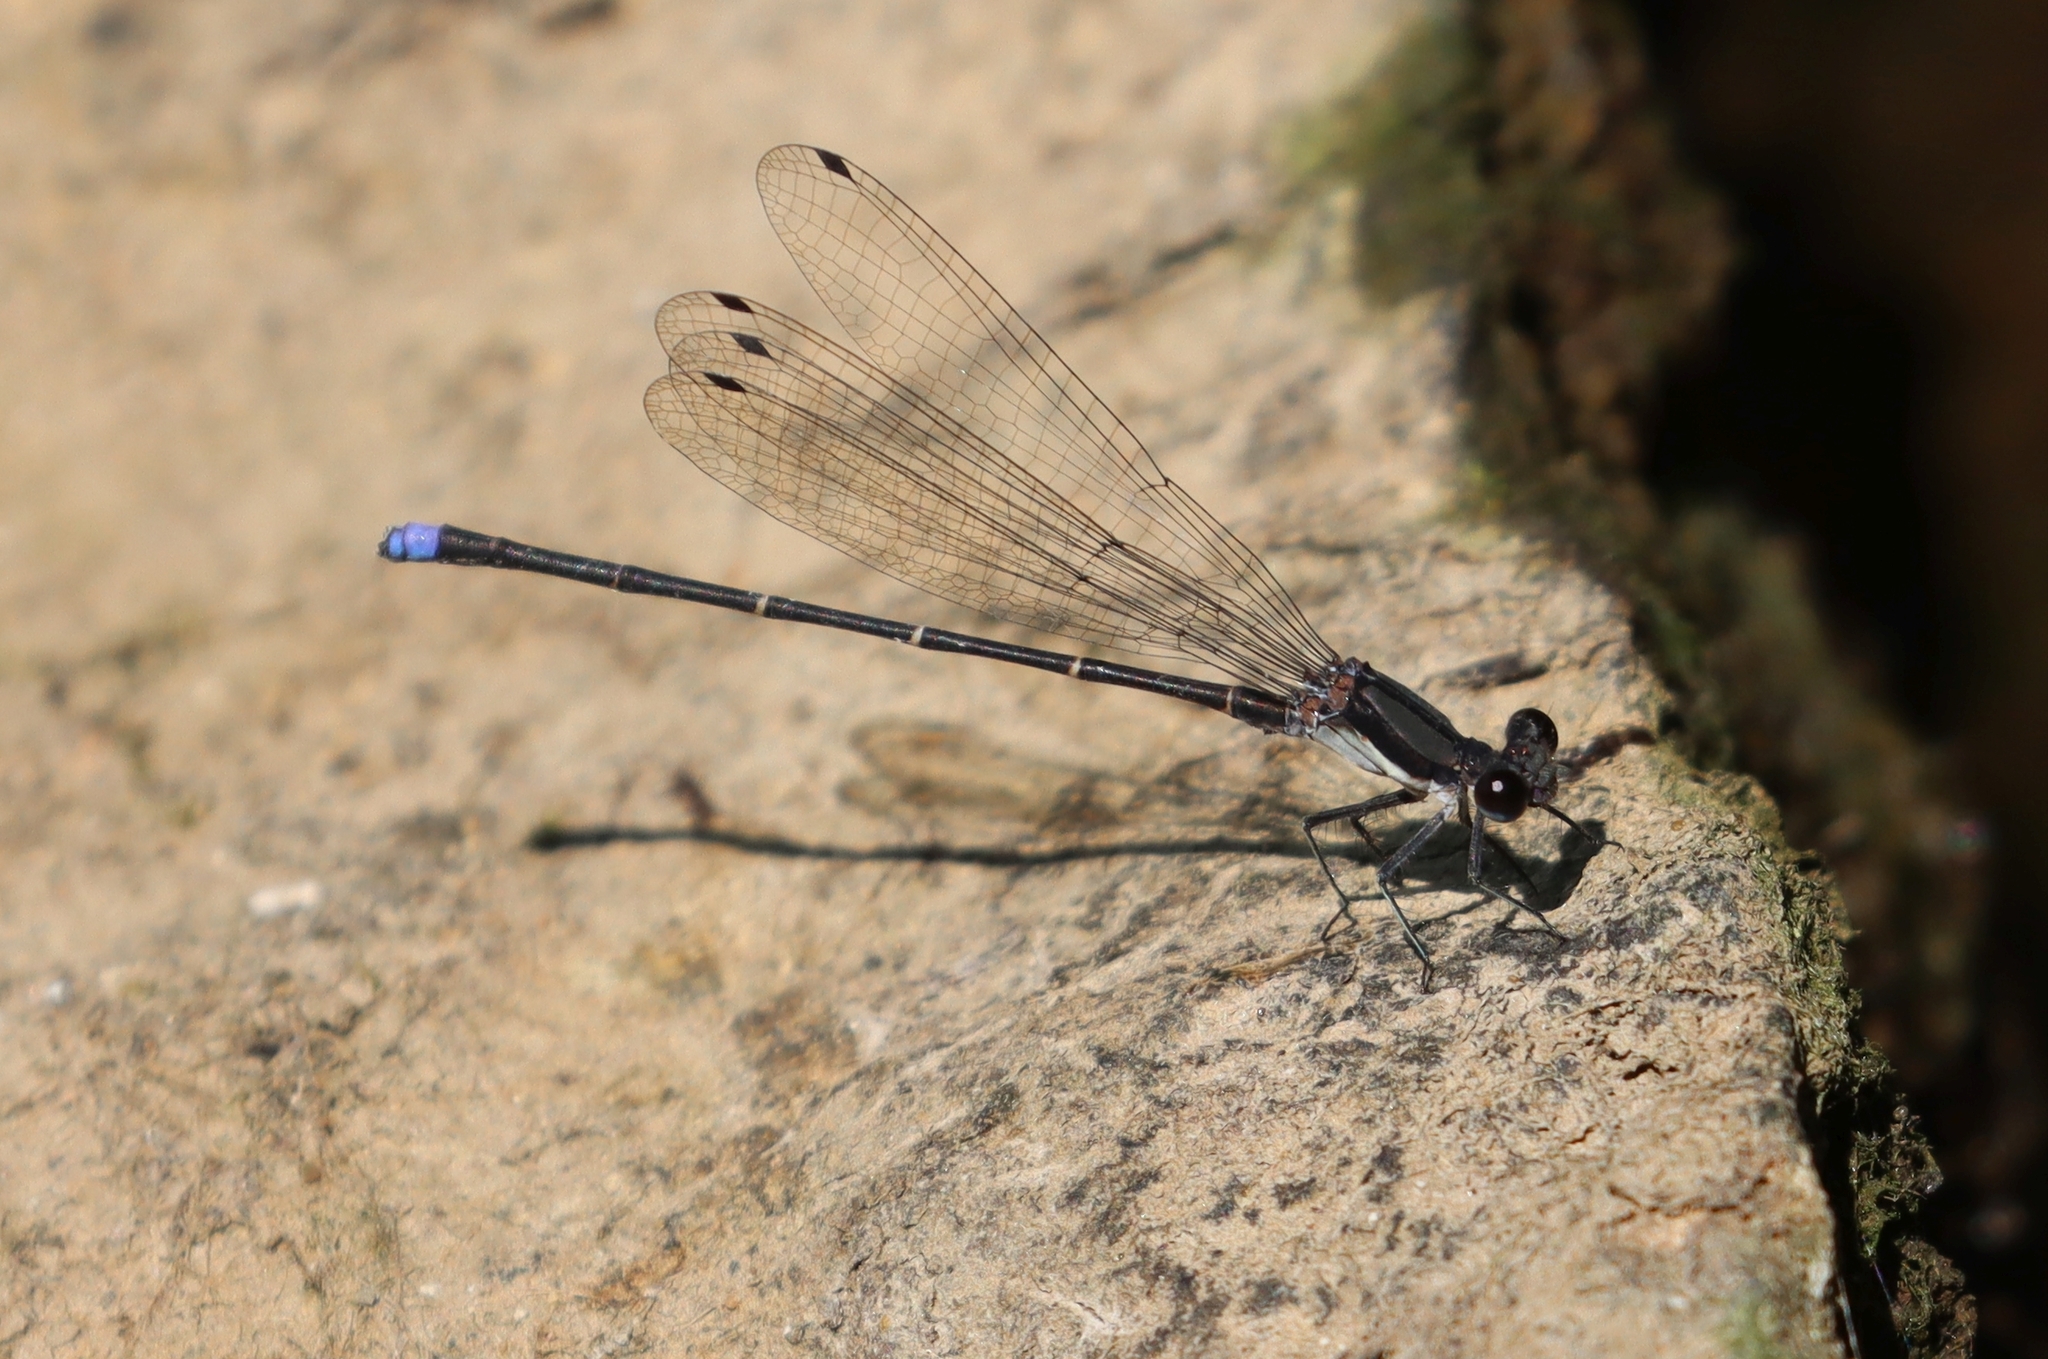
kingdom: Animalia
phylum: Arthropoda
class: Insecta
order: Odonata
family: Coenagrionidae
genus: Argia
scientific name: Argia tibialis
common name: Blue-tipped dancer
